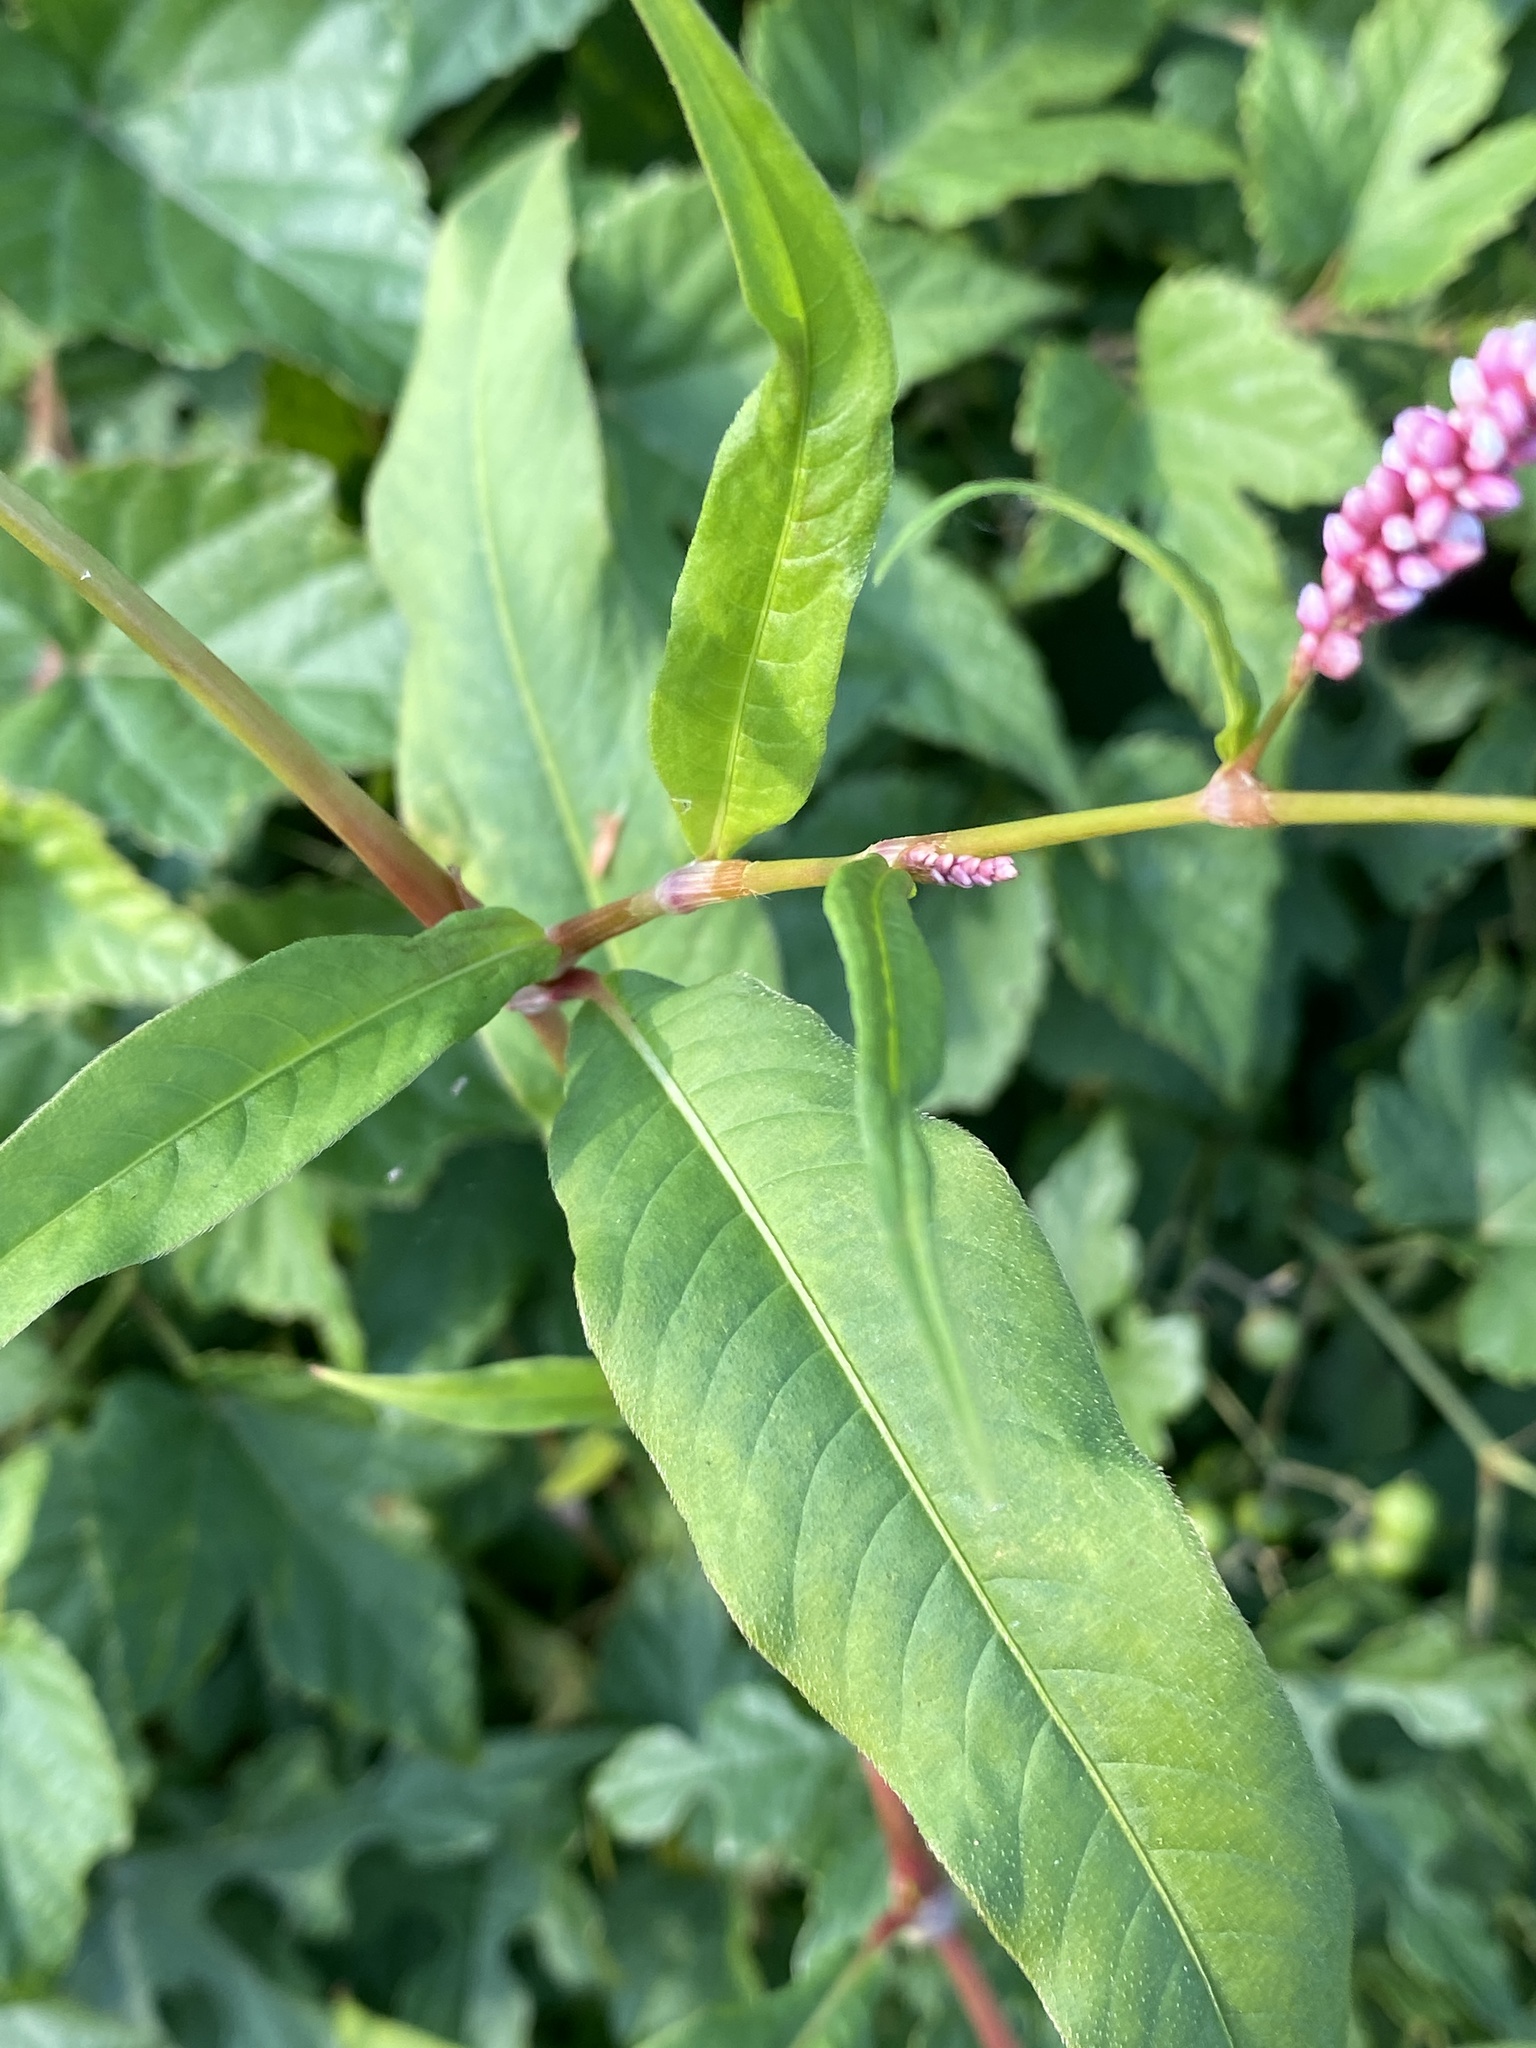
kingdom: Plantae
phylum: Tracheophyta
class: Magnoliopsida
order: Caryophyllales
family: Polygonaceae
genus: Persicaria
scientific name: Persicaria lapathifolia
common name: Curlytop knotweed
